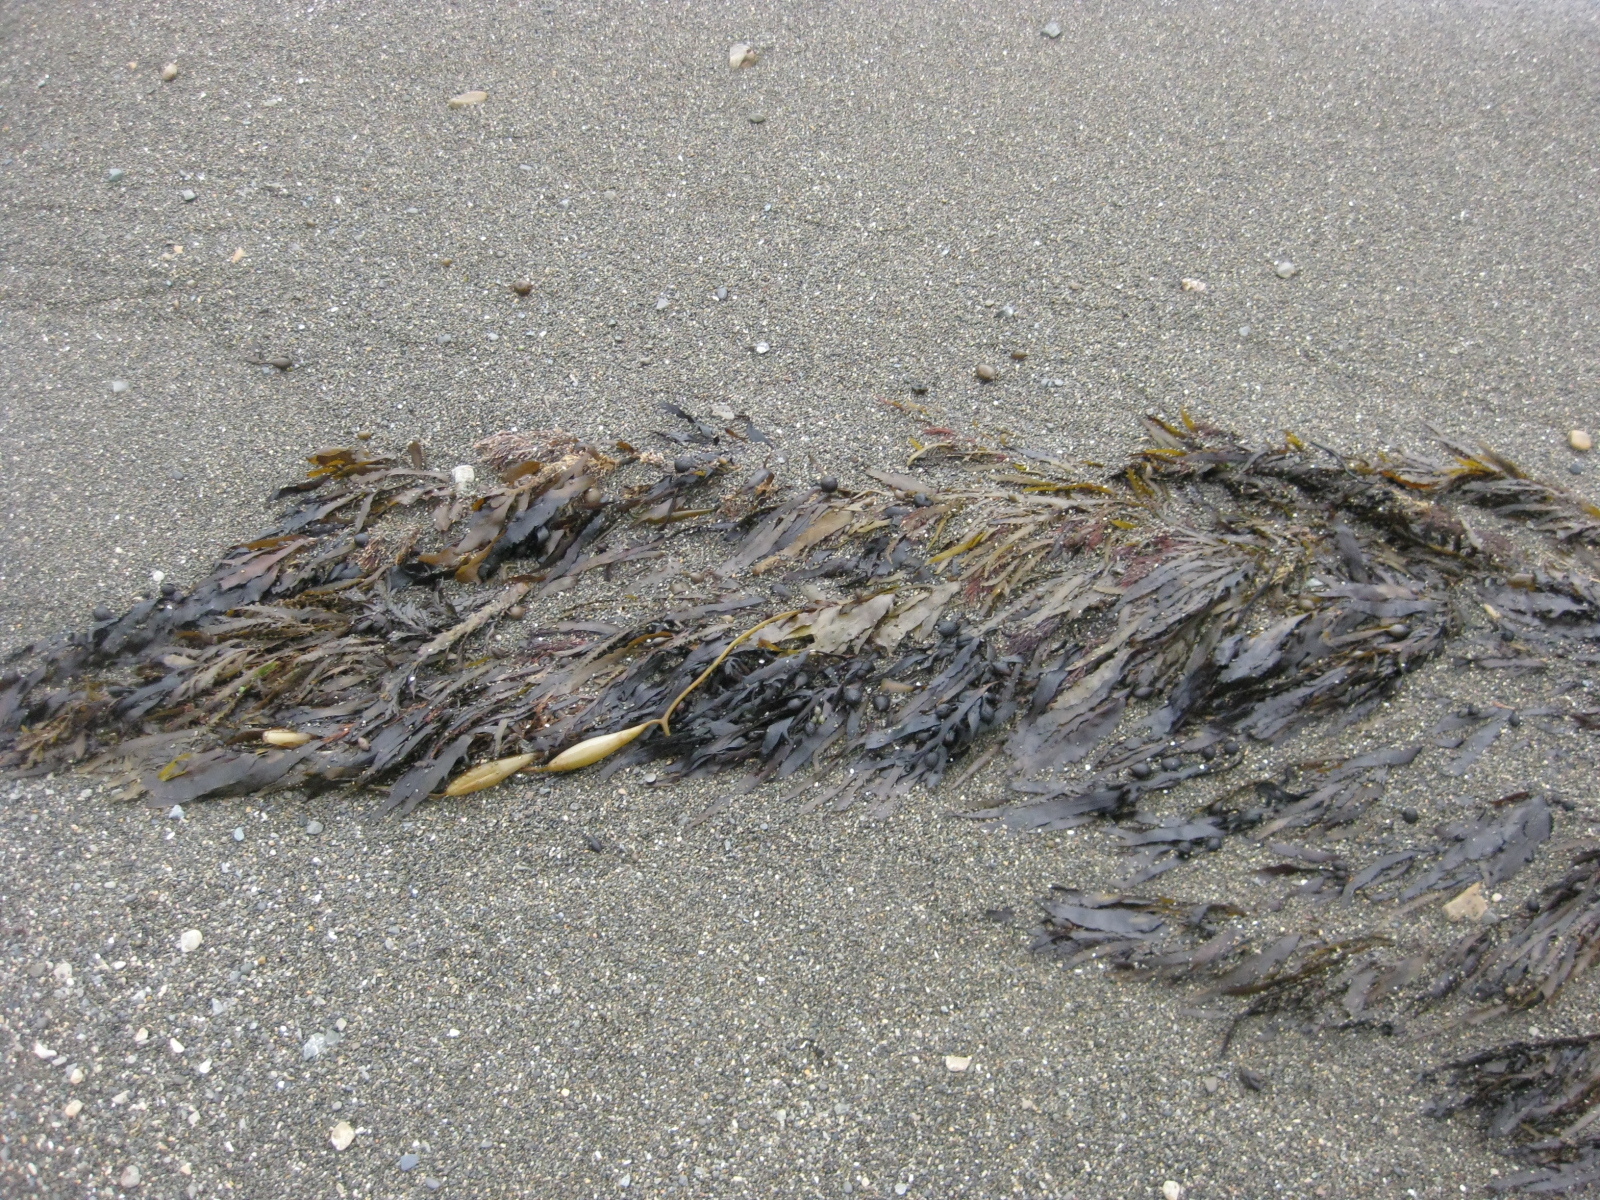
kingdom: Chromista
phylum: Ochrophyta
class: Phaeophyceae
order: Laminariales
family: Laminariaceae
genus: Macrocystis
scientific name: Macrocystis pyrifera
